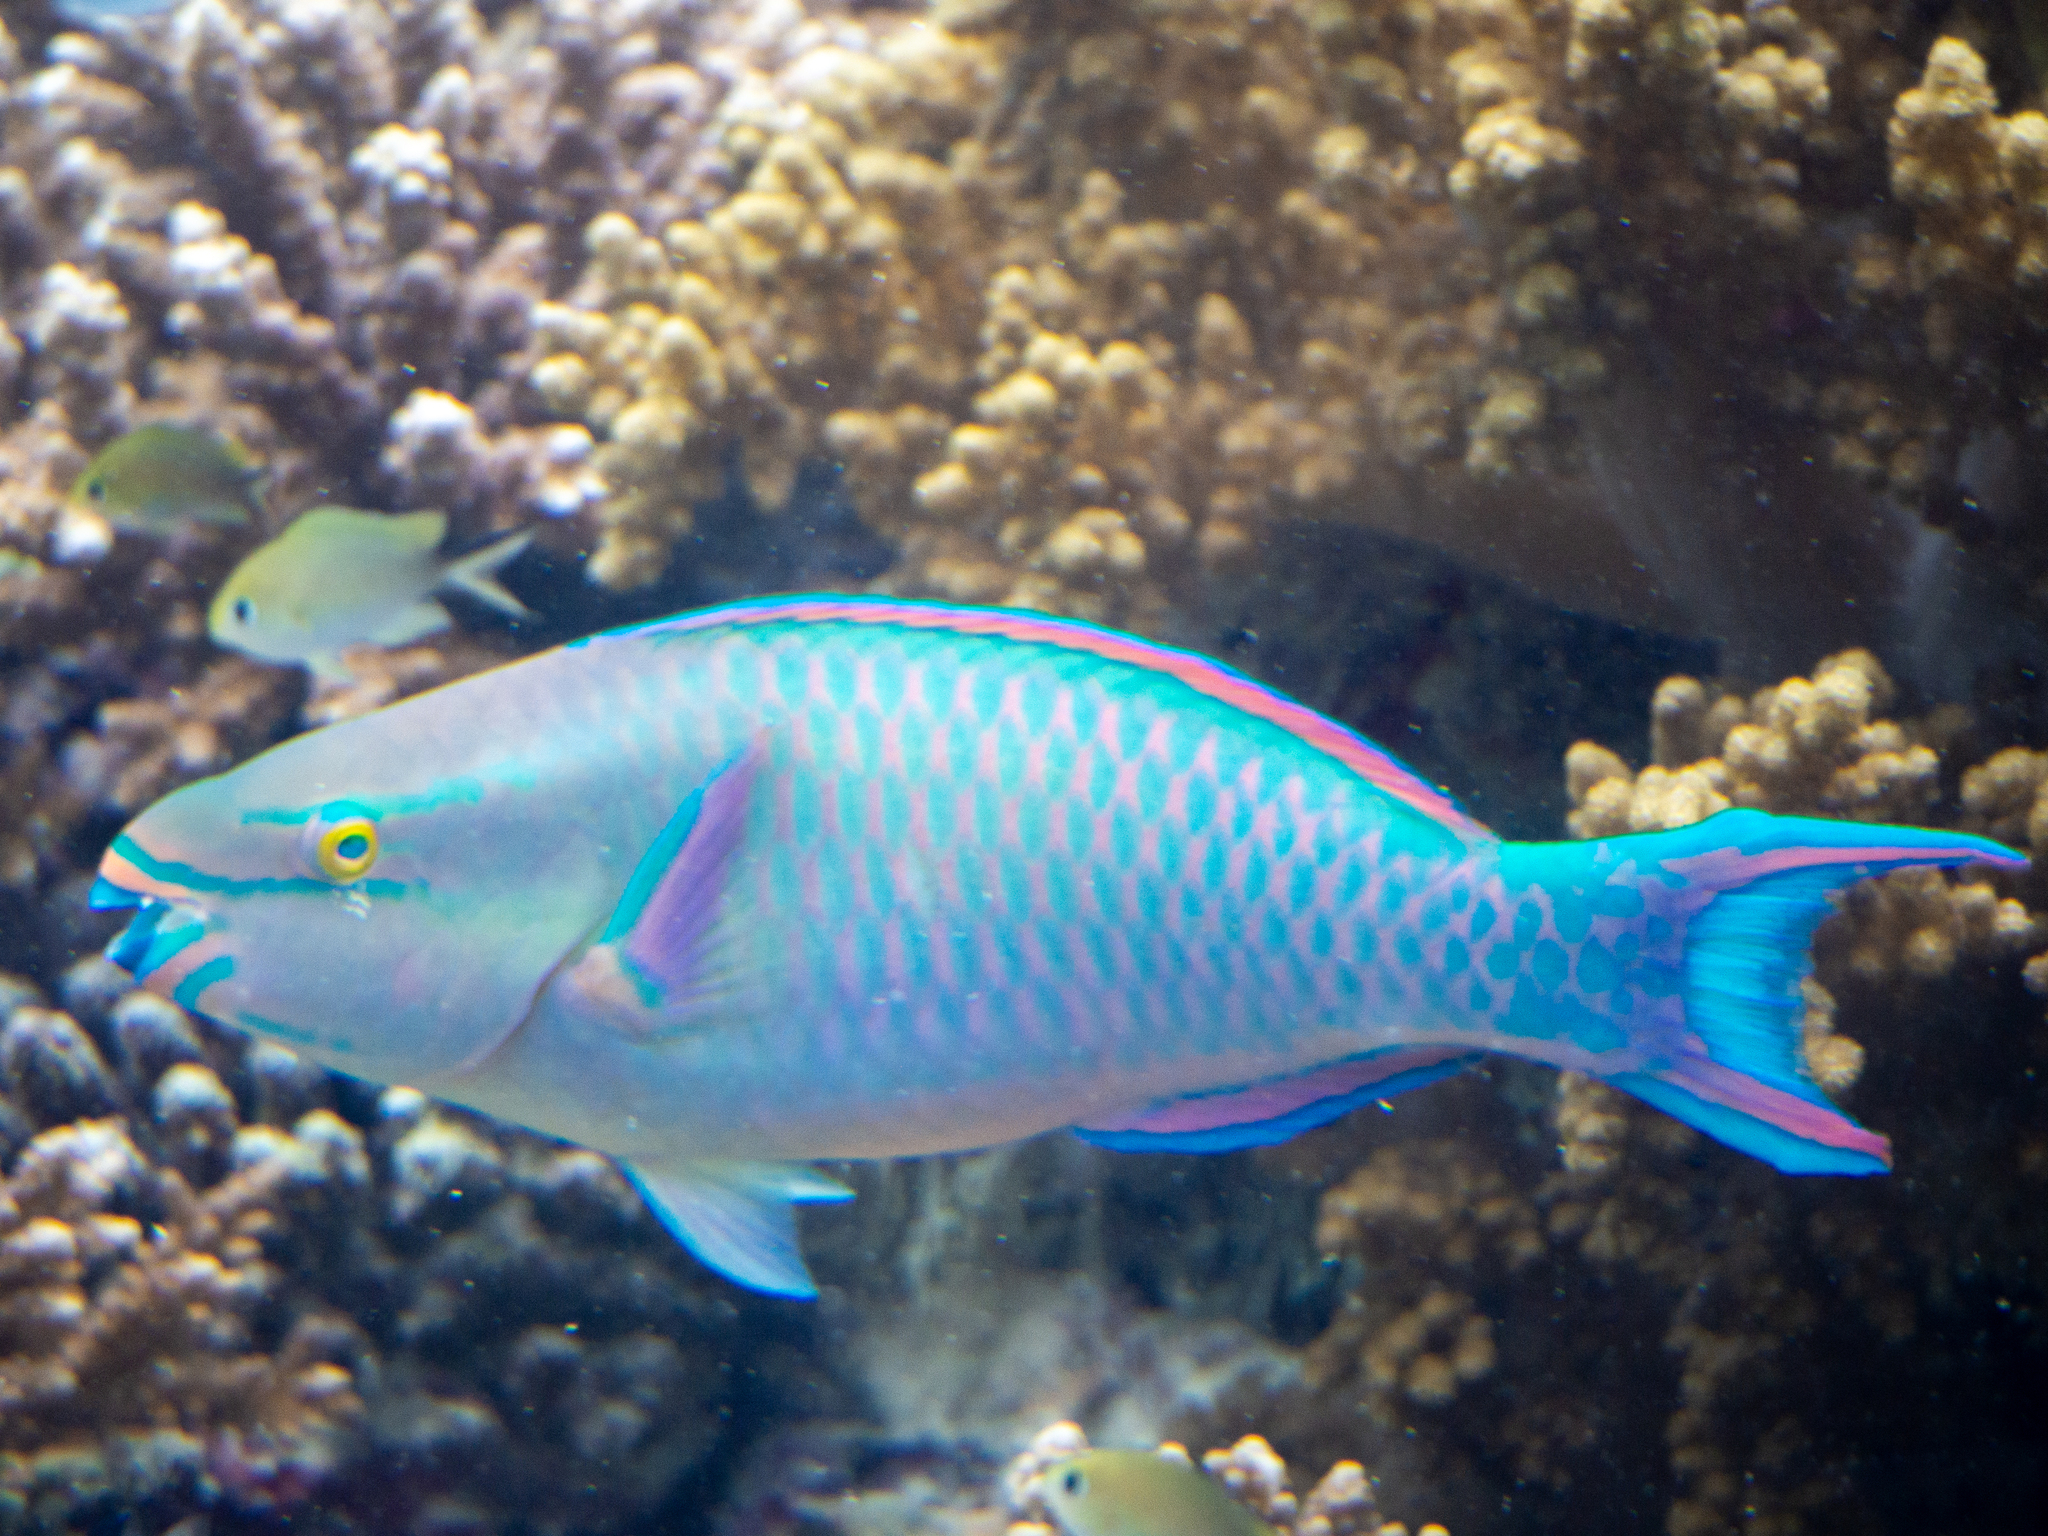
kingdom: Animalia
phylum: Chordata
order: Perciformes
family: Scaridae
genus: Scarus
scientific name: Scarus tricolor
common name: Tricolour parrotfish
